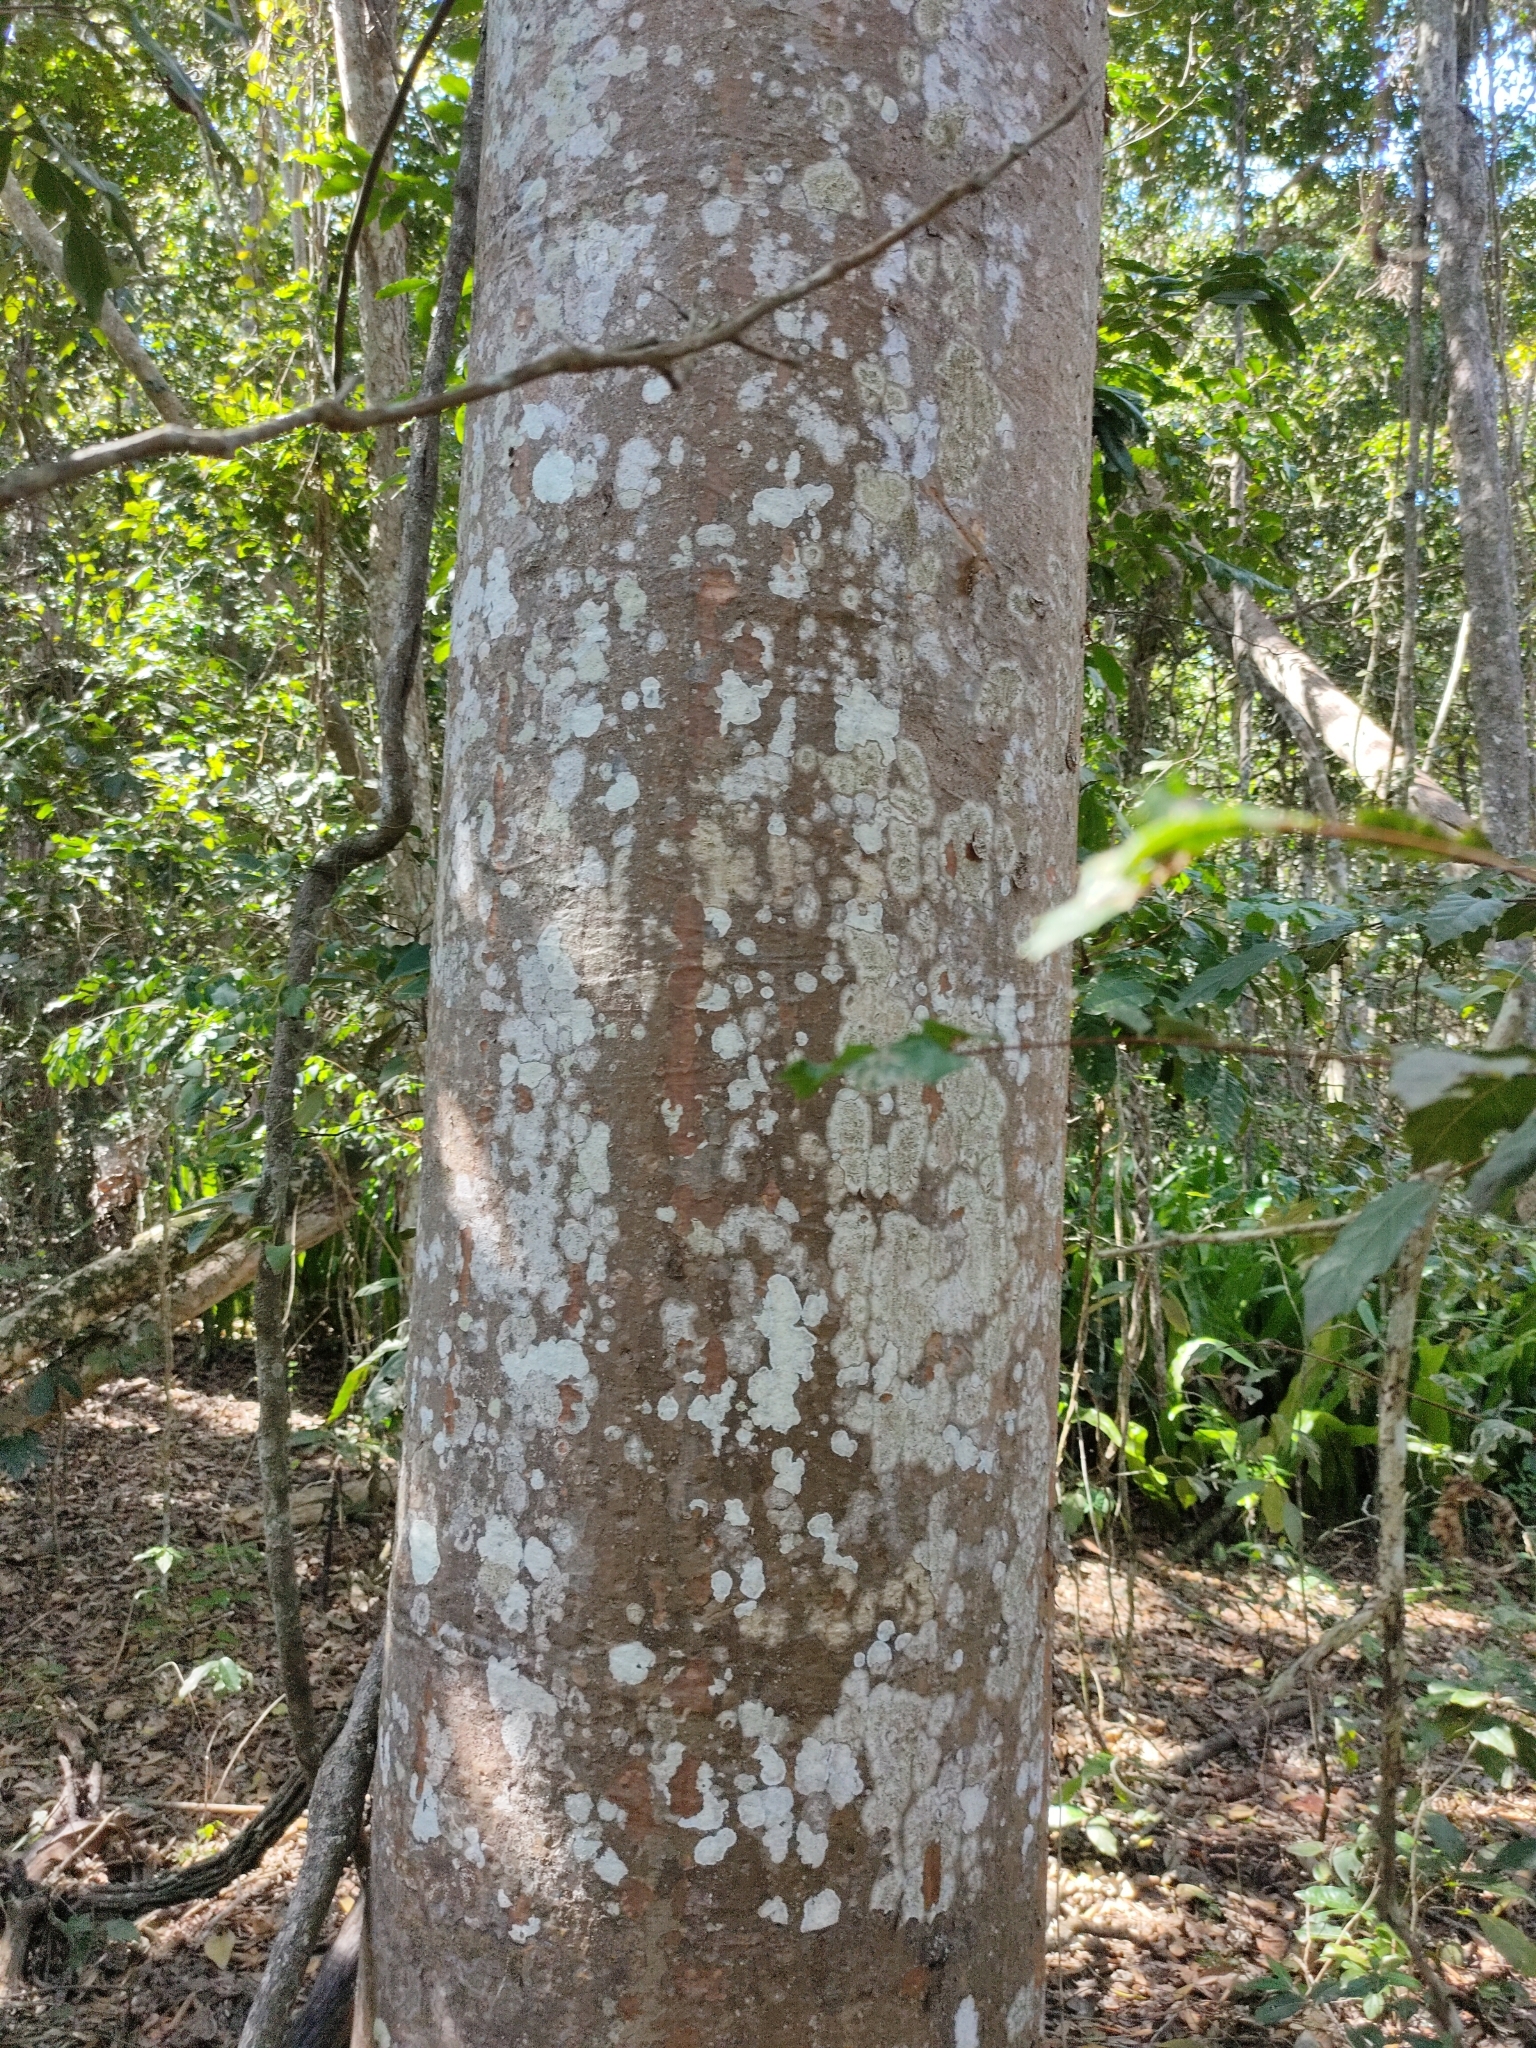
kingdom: Plantae
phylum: Tracheophyta
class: Pinopsida
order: Pinales
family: Araucariaceae
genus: Agathis
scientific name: Agathis robusta
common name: Australian-kauri
